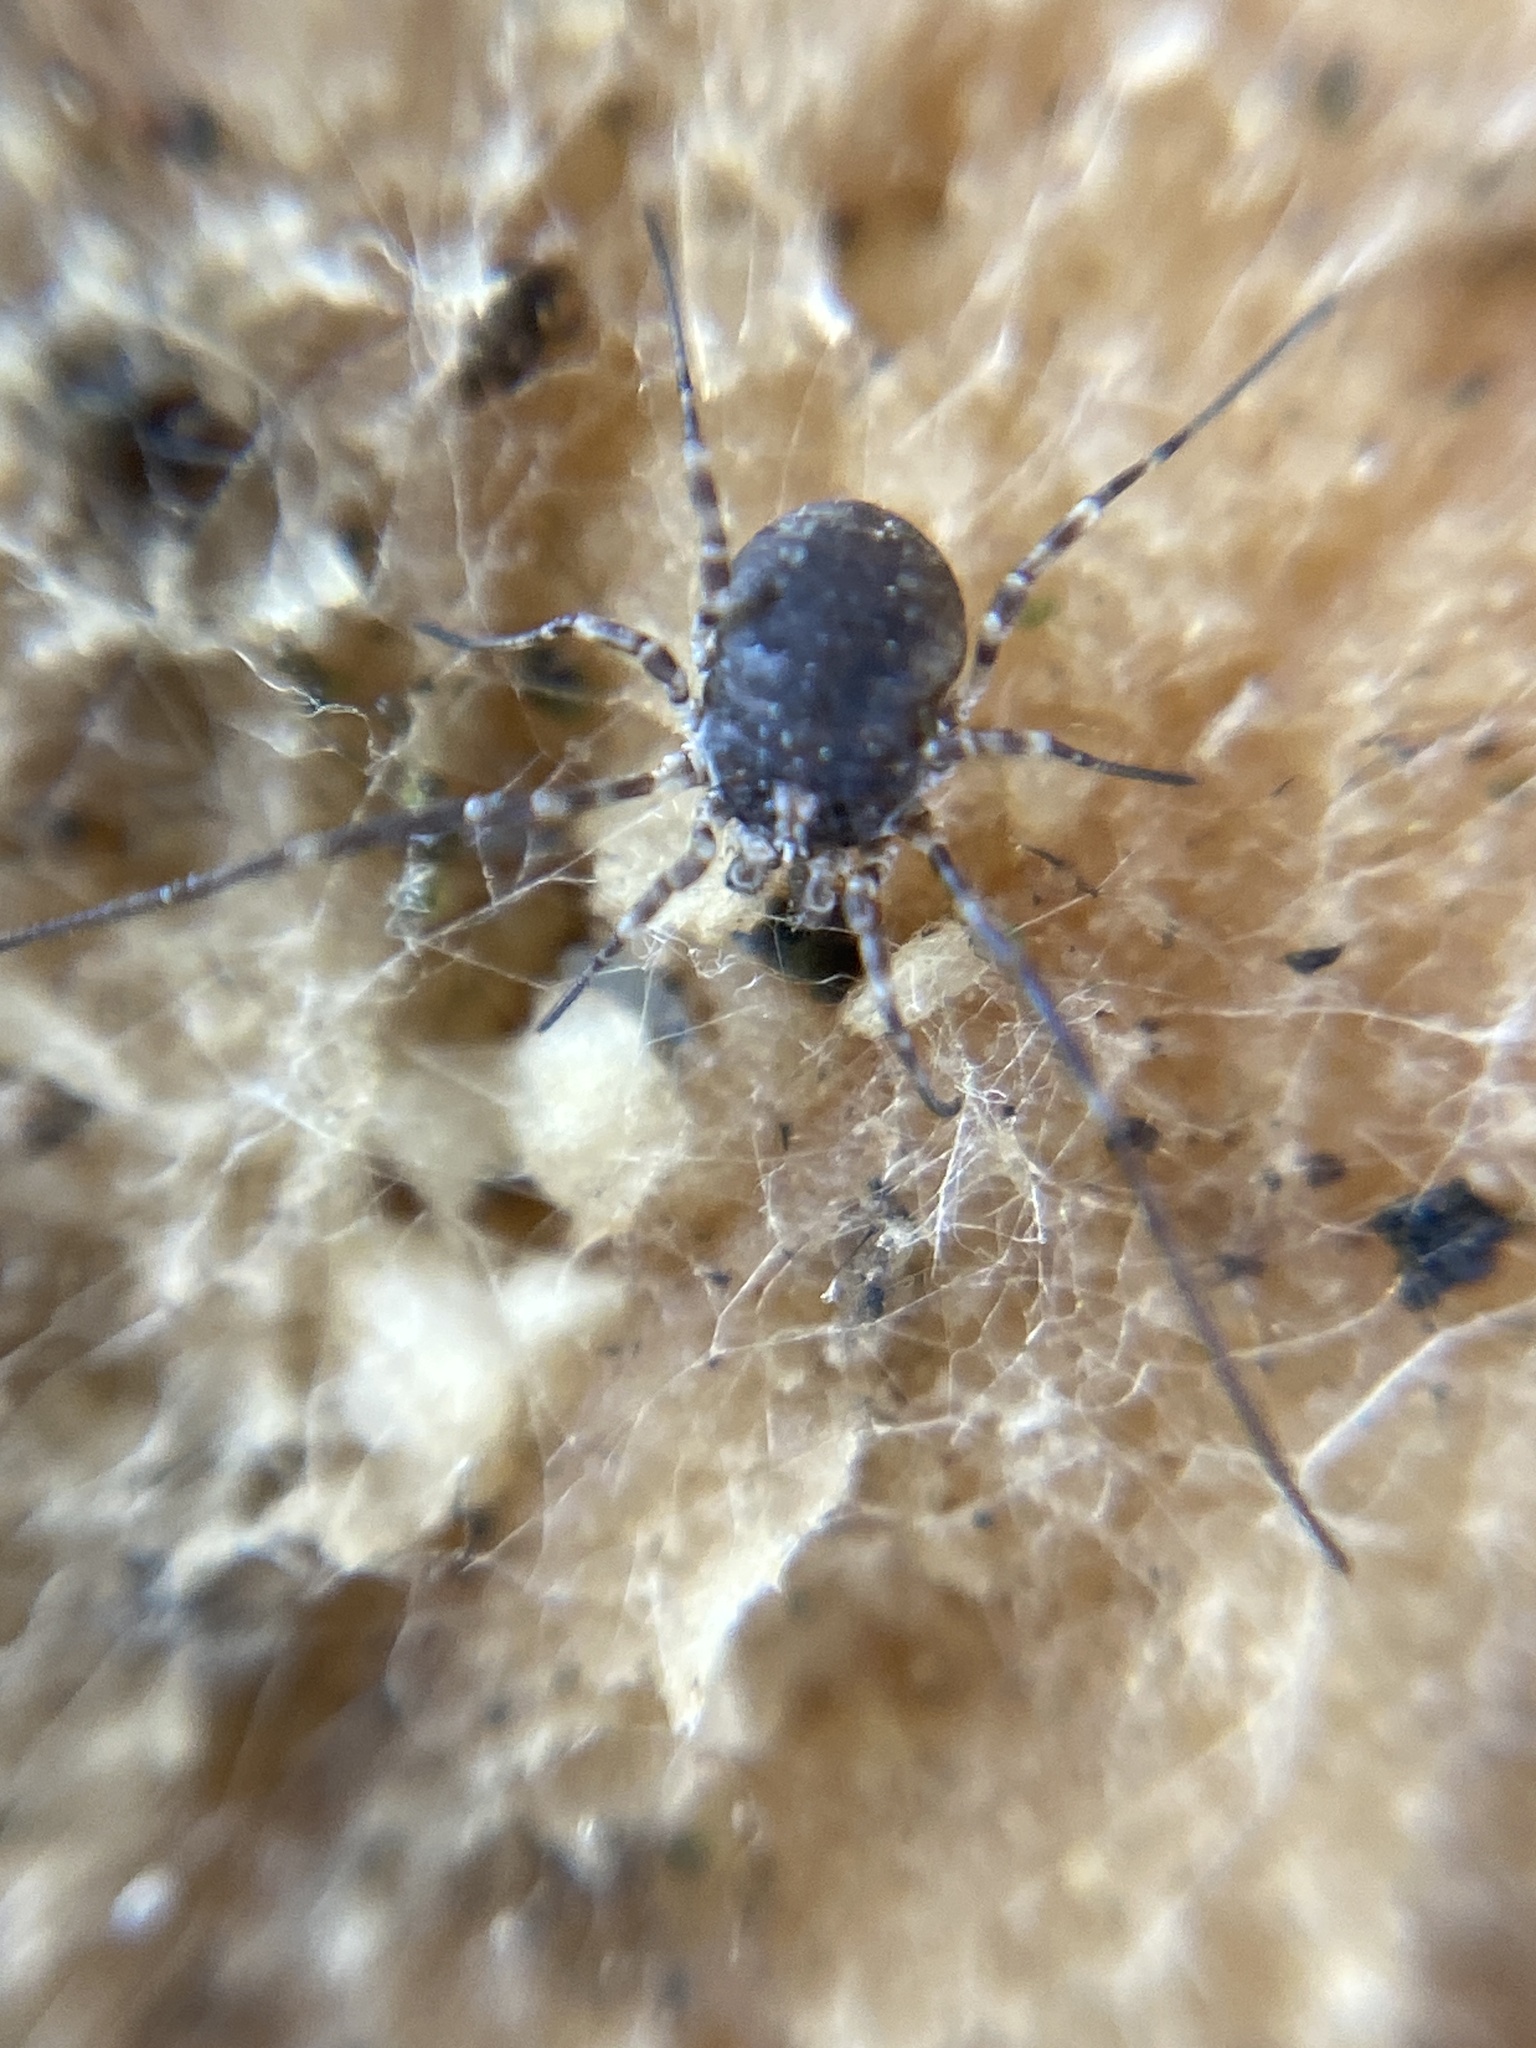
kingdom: Animalia
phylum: Arthropoda
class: Arachnida
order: Opiliones
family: Phalangiidae
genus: Lacinius
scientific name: Lacinius dentiger
